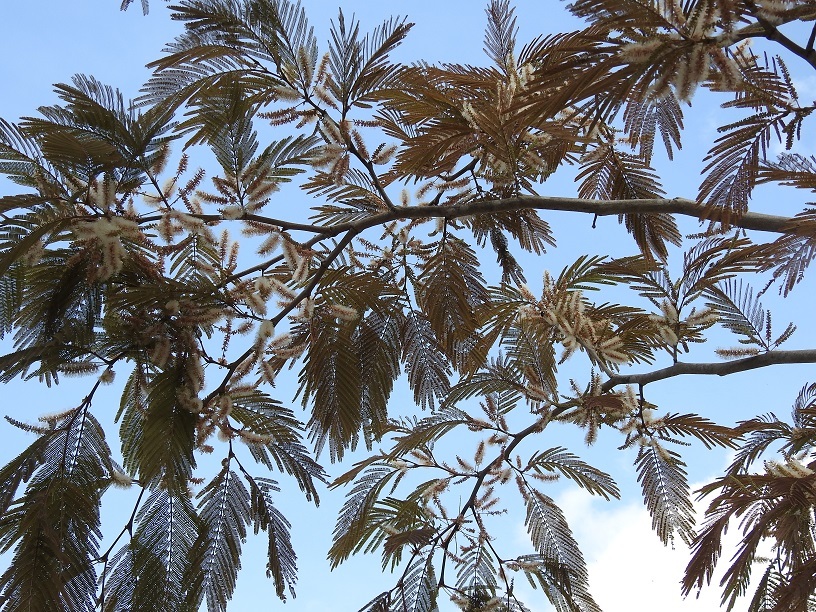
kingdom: Plantae
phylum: Tracheophyta
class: Magnoliopsida
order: Fabales
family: Fabaceae
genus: Mariosousa
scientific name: Mariosousa coulteri
